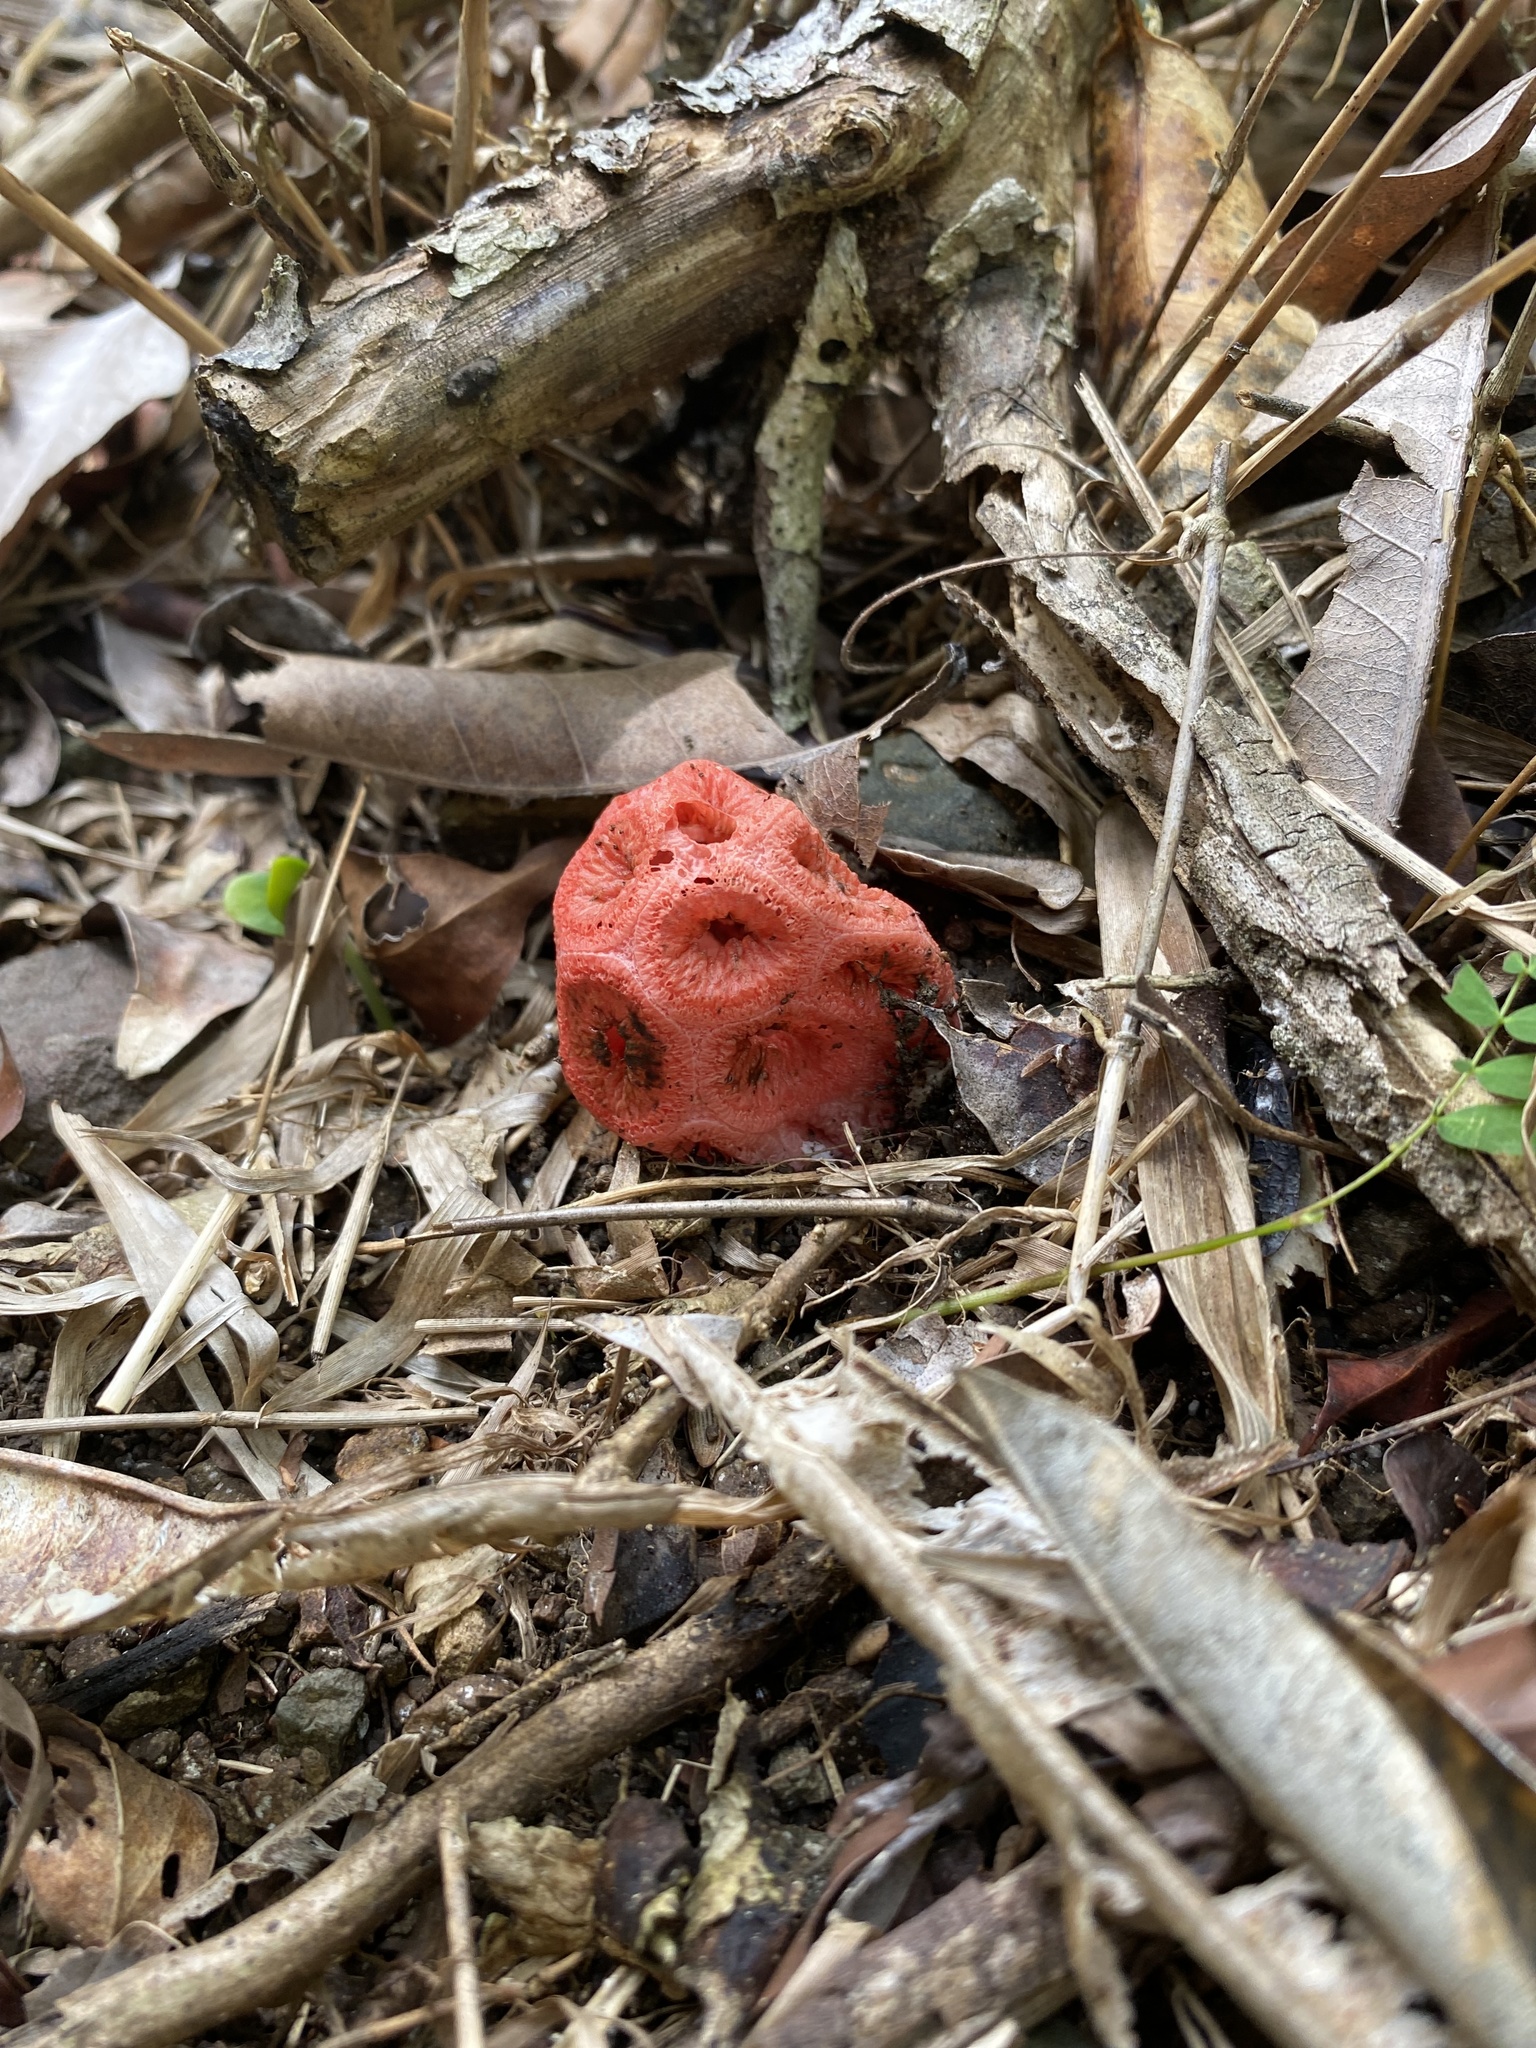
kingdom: Fungi
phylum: Basidiomycota
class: Agaricomycetes
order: Phallales
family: Phallaceae
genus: Clathrus
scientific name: Clathrus crispatus
